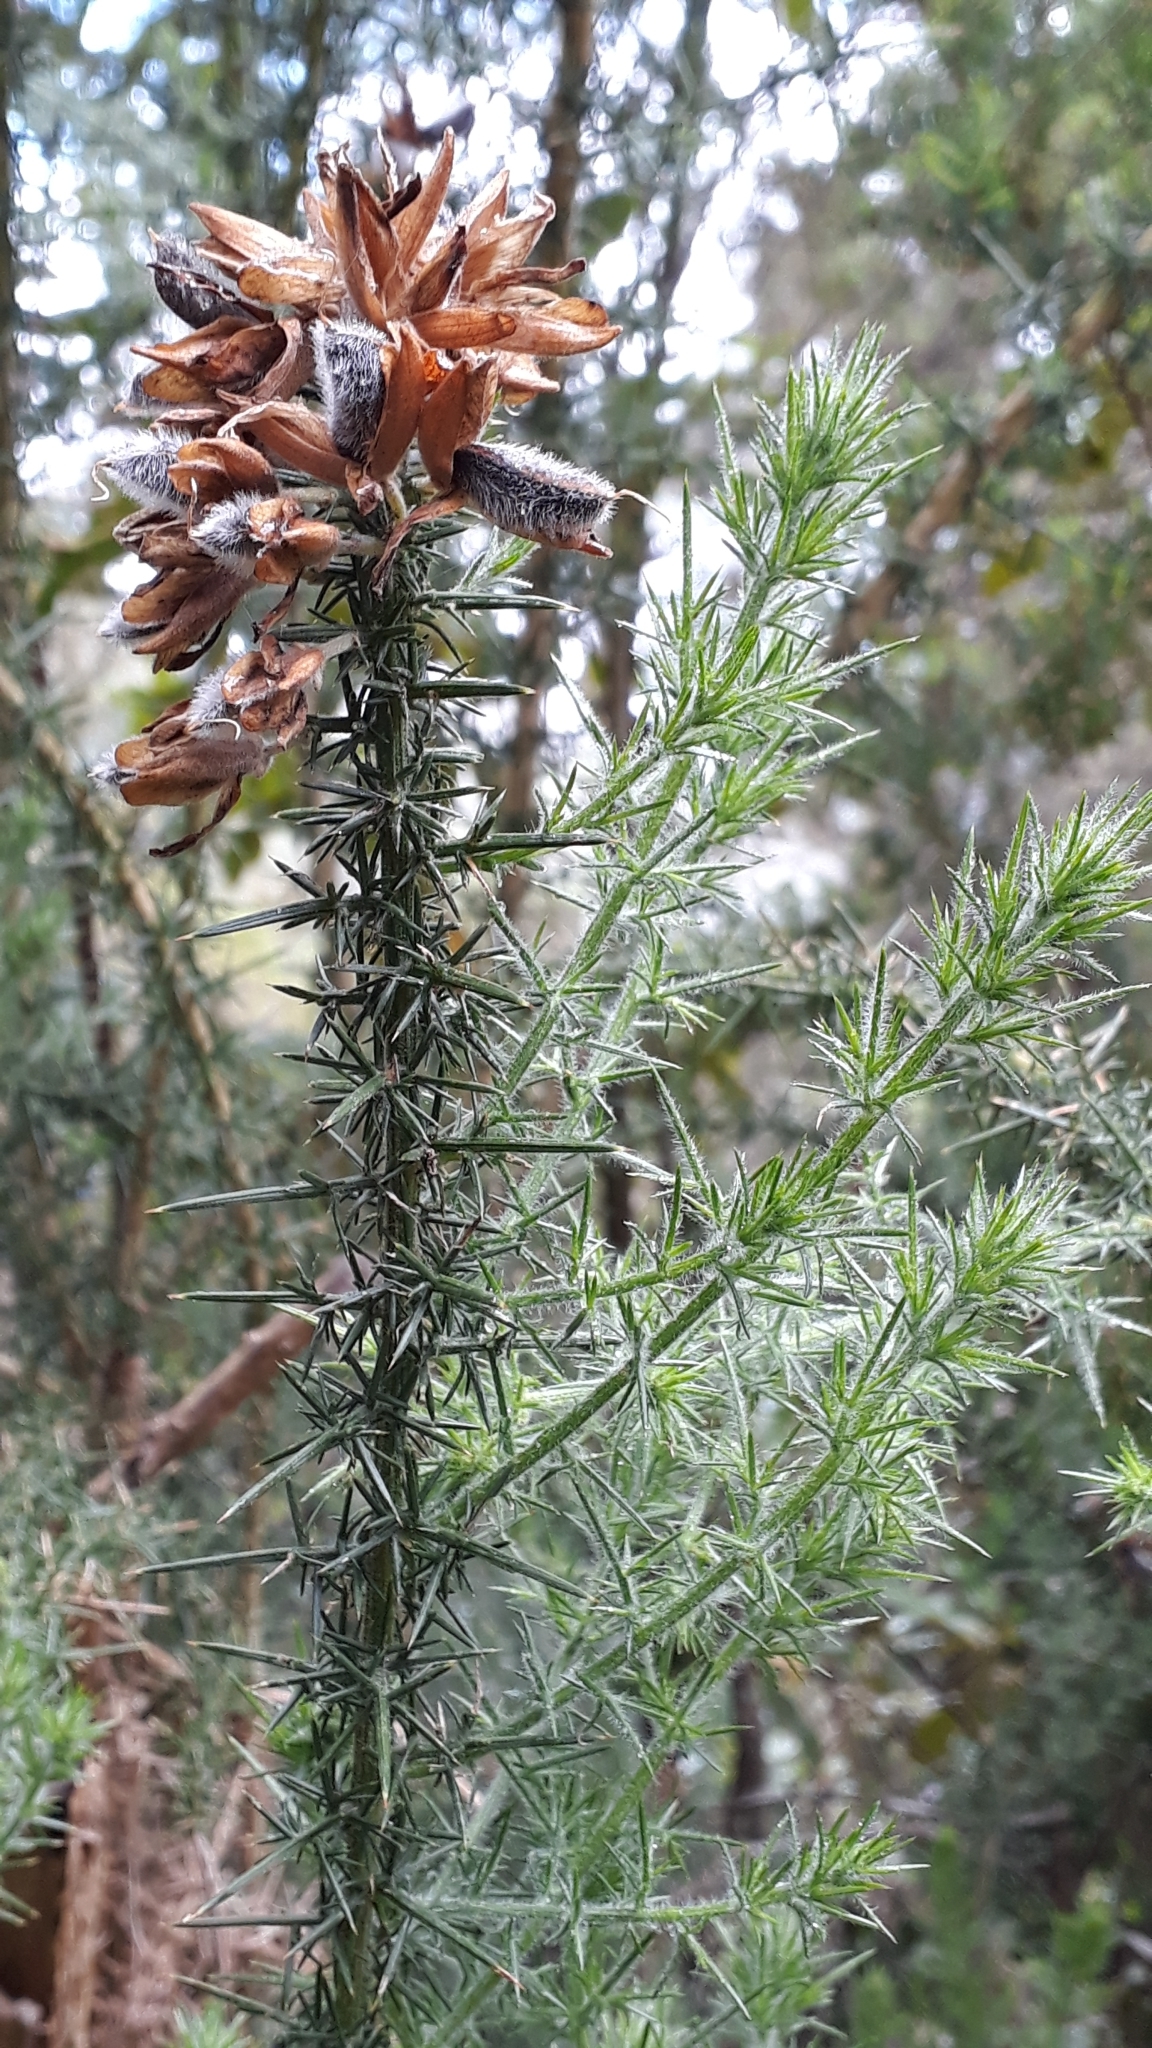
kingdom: Plantae
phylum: Tracheophyta
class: Magnoliopsida
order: Fabales
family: Fabaceae
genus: Ulex
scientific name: Ulex europaeus
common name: Common gorse
